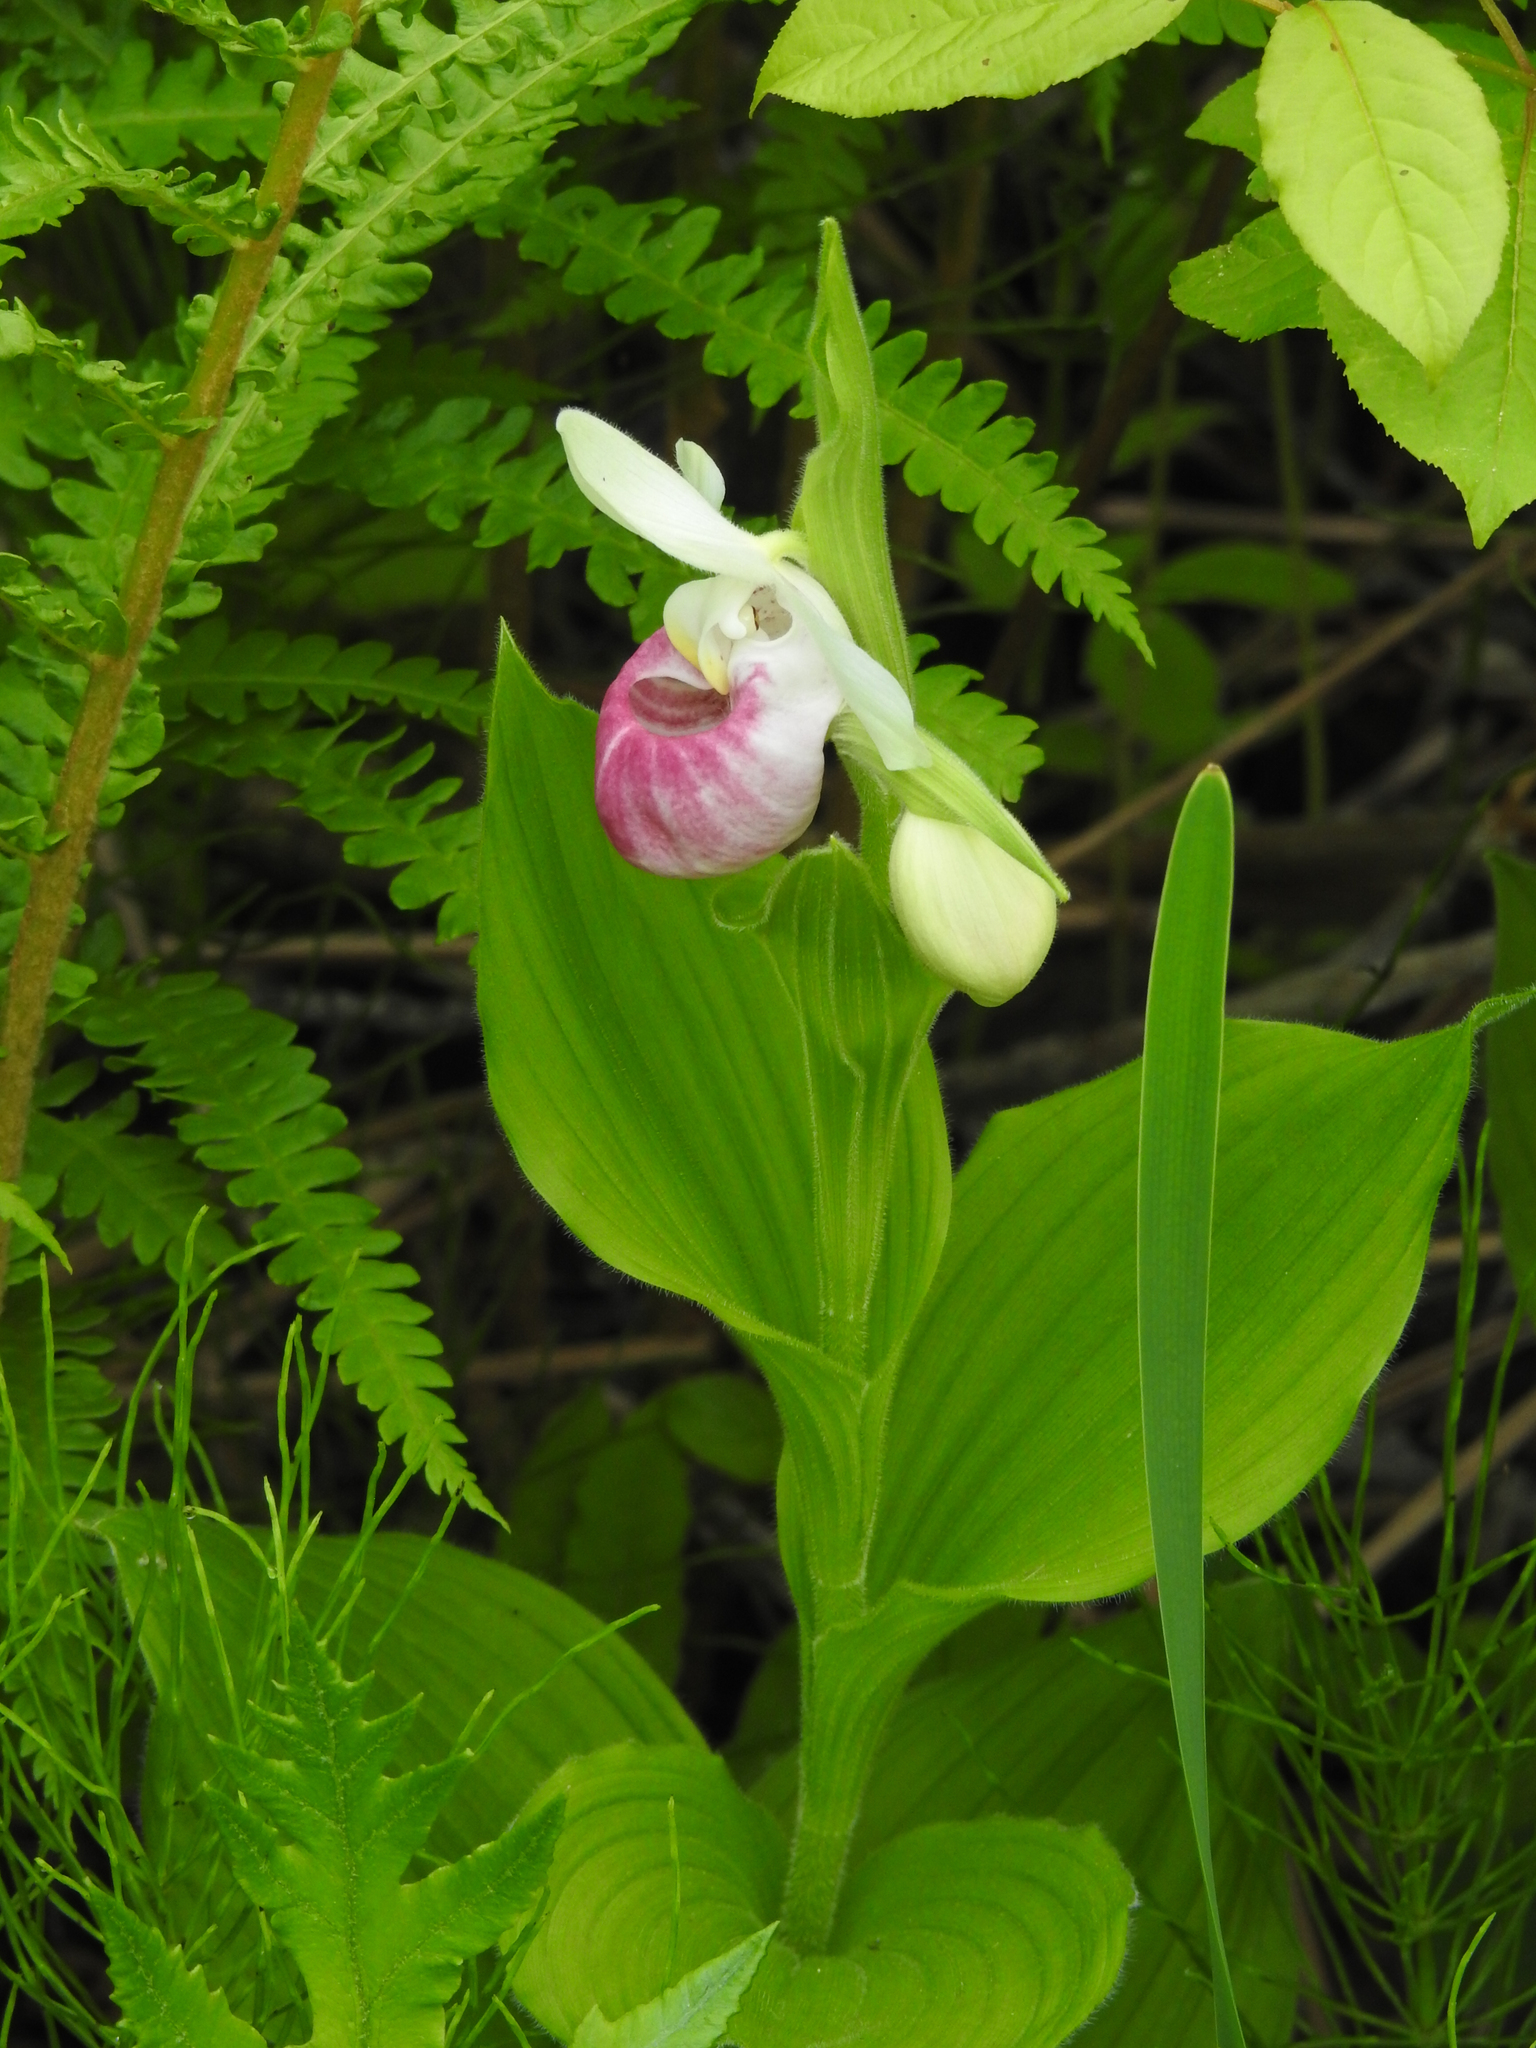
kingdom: Plantae
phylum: Tracheophyta
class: Liliopsida
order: Asparagales
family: Orchidaceae
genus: Cypripedium
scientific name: Cypripedium reginae
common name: Queen lady's-slipper
